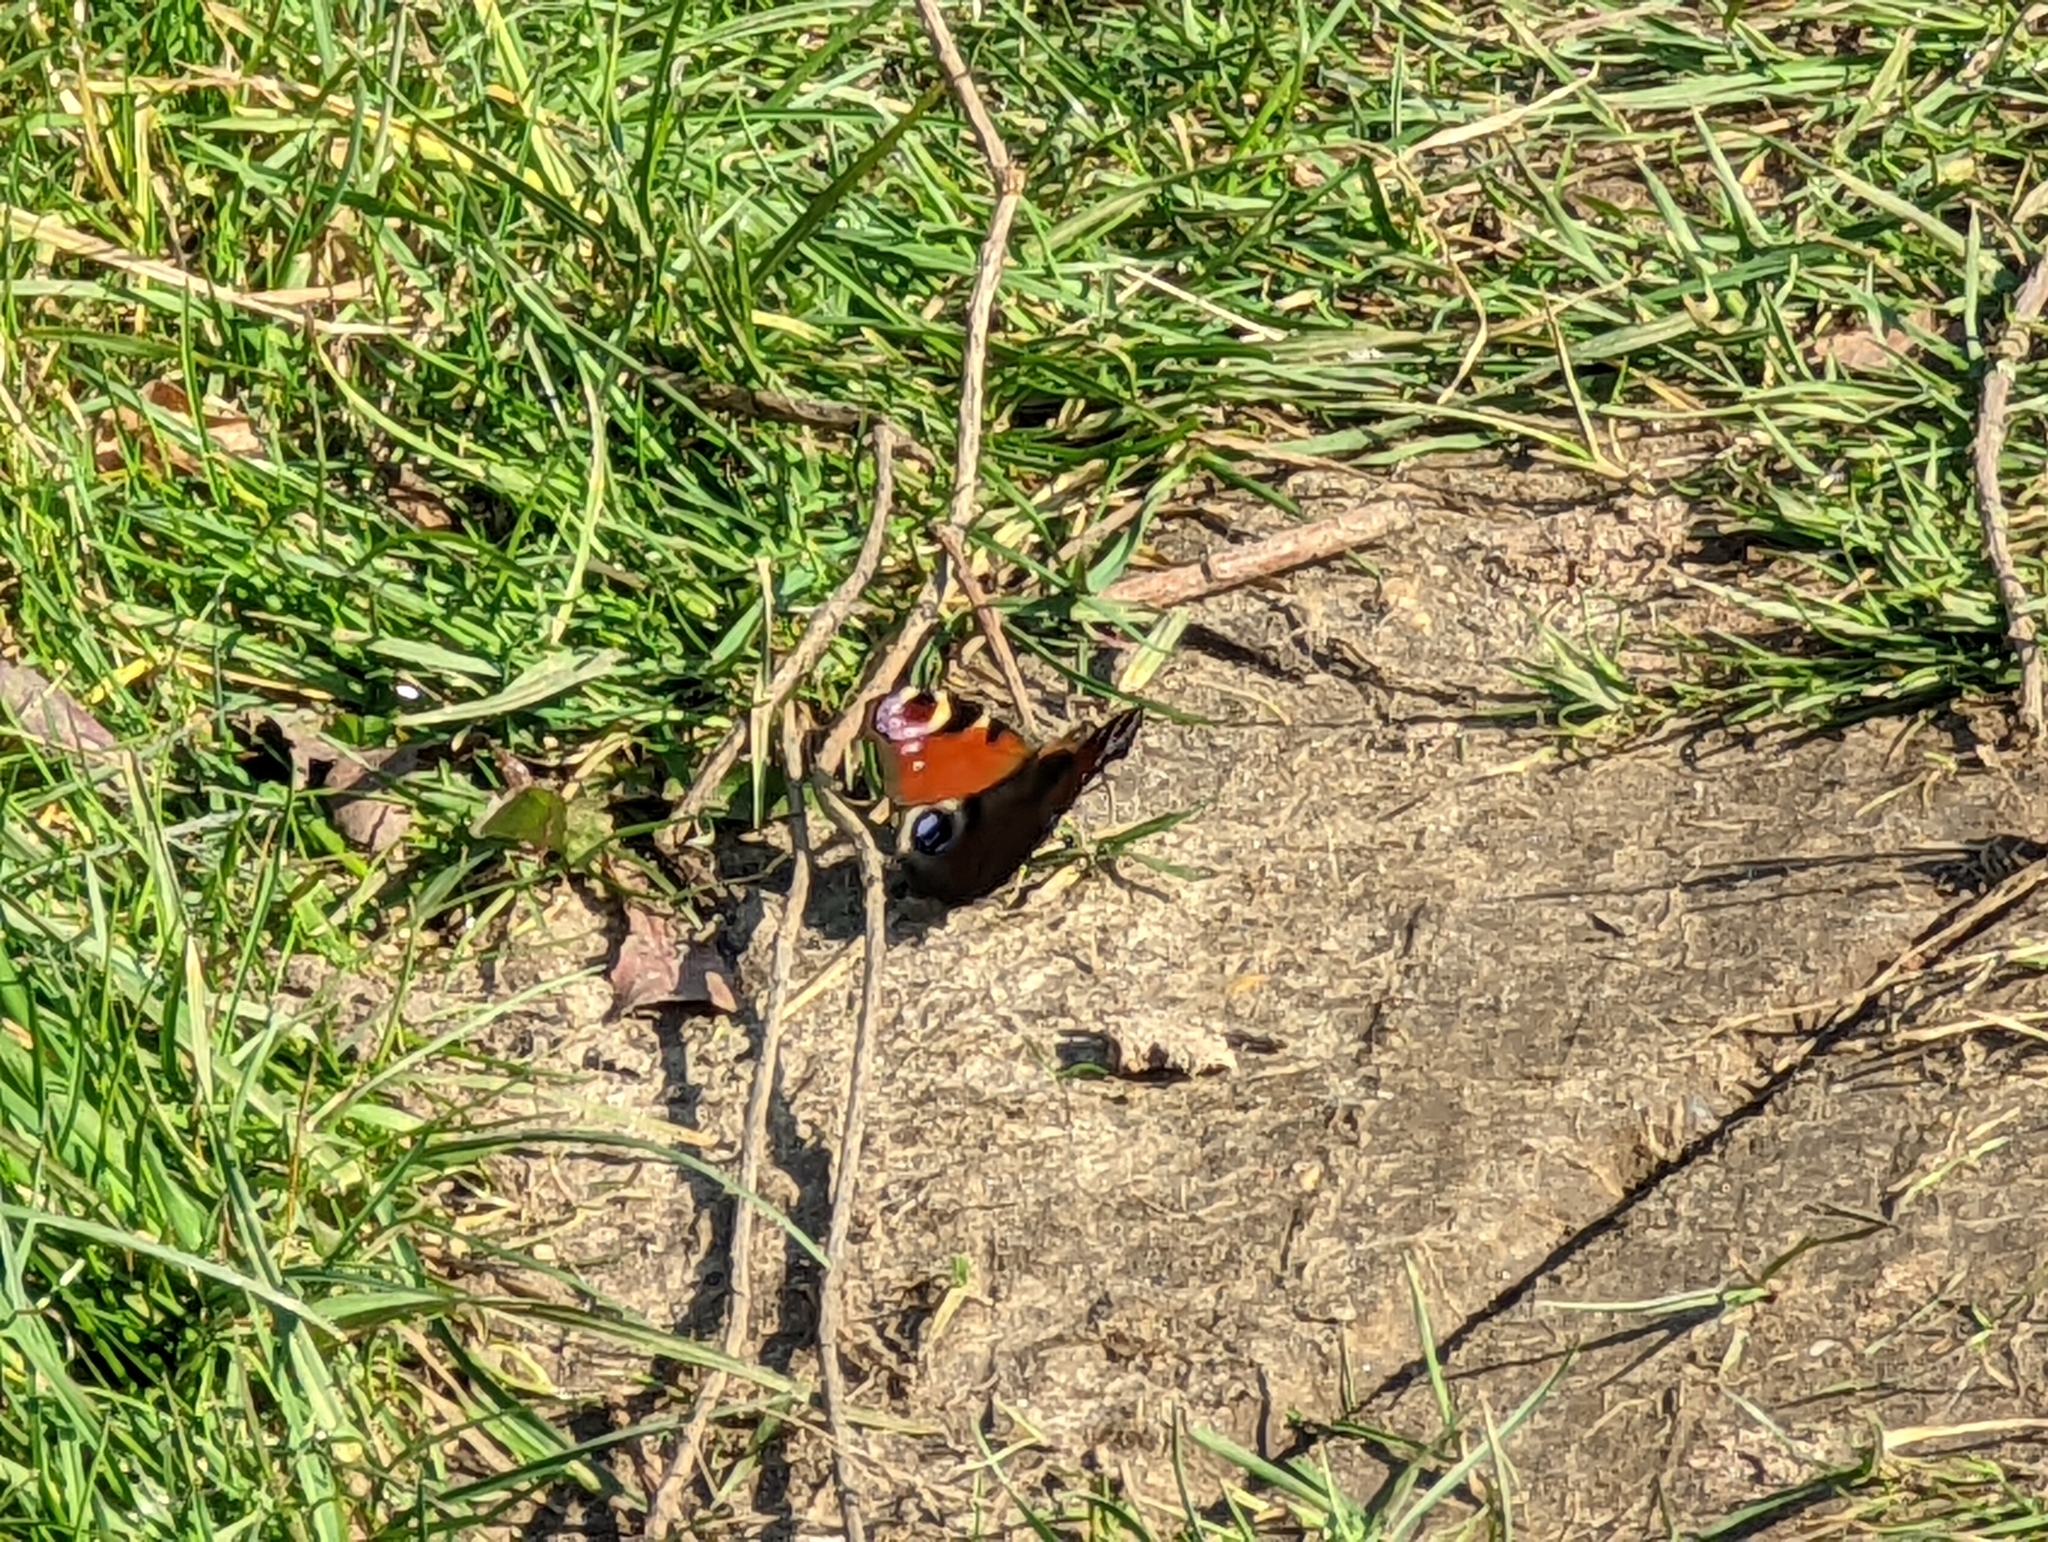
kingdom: Animalia
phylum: Arthropoda
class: Insecta
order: Lepidoptera
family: Nymphalidae
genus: Aglais
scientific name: Aglais io
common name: Peacock
